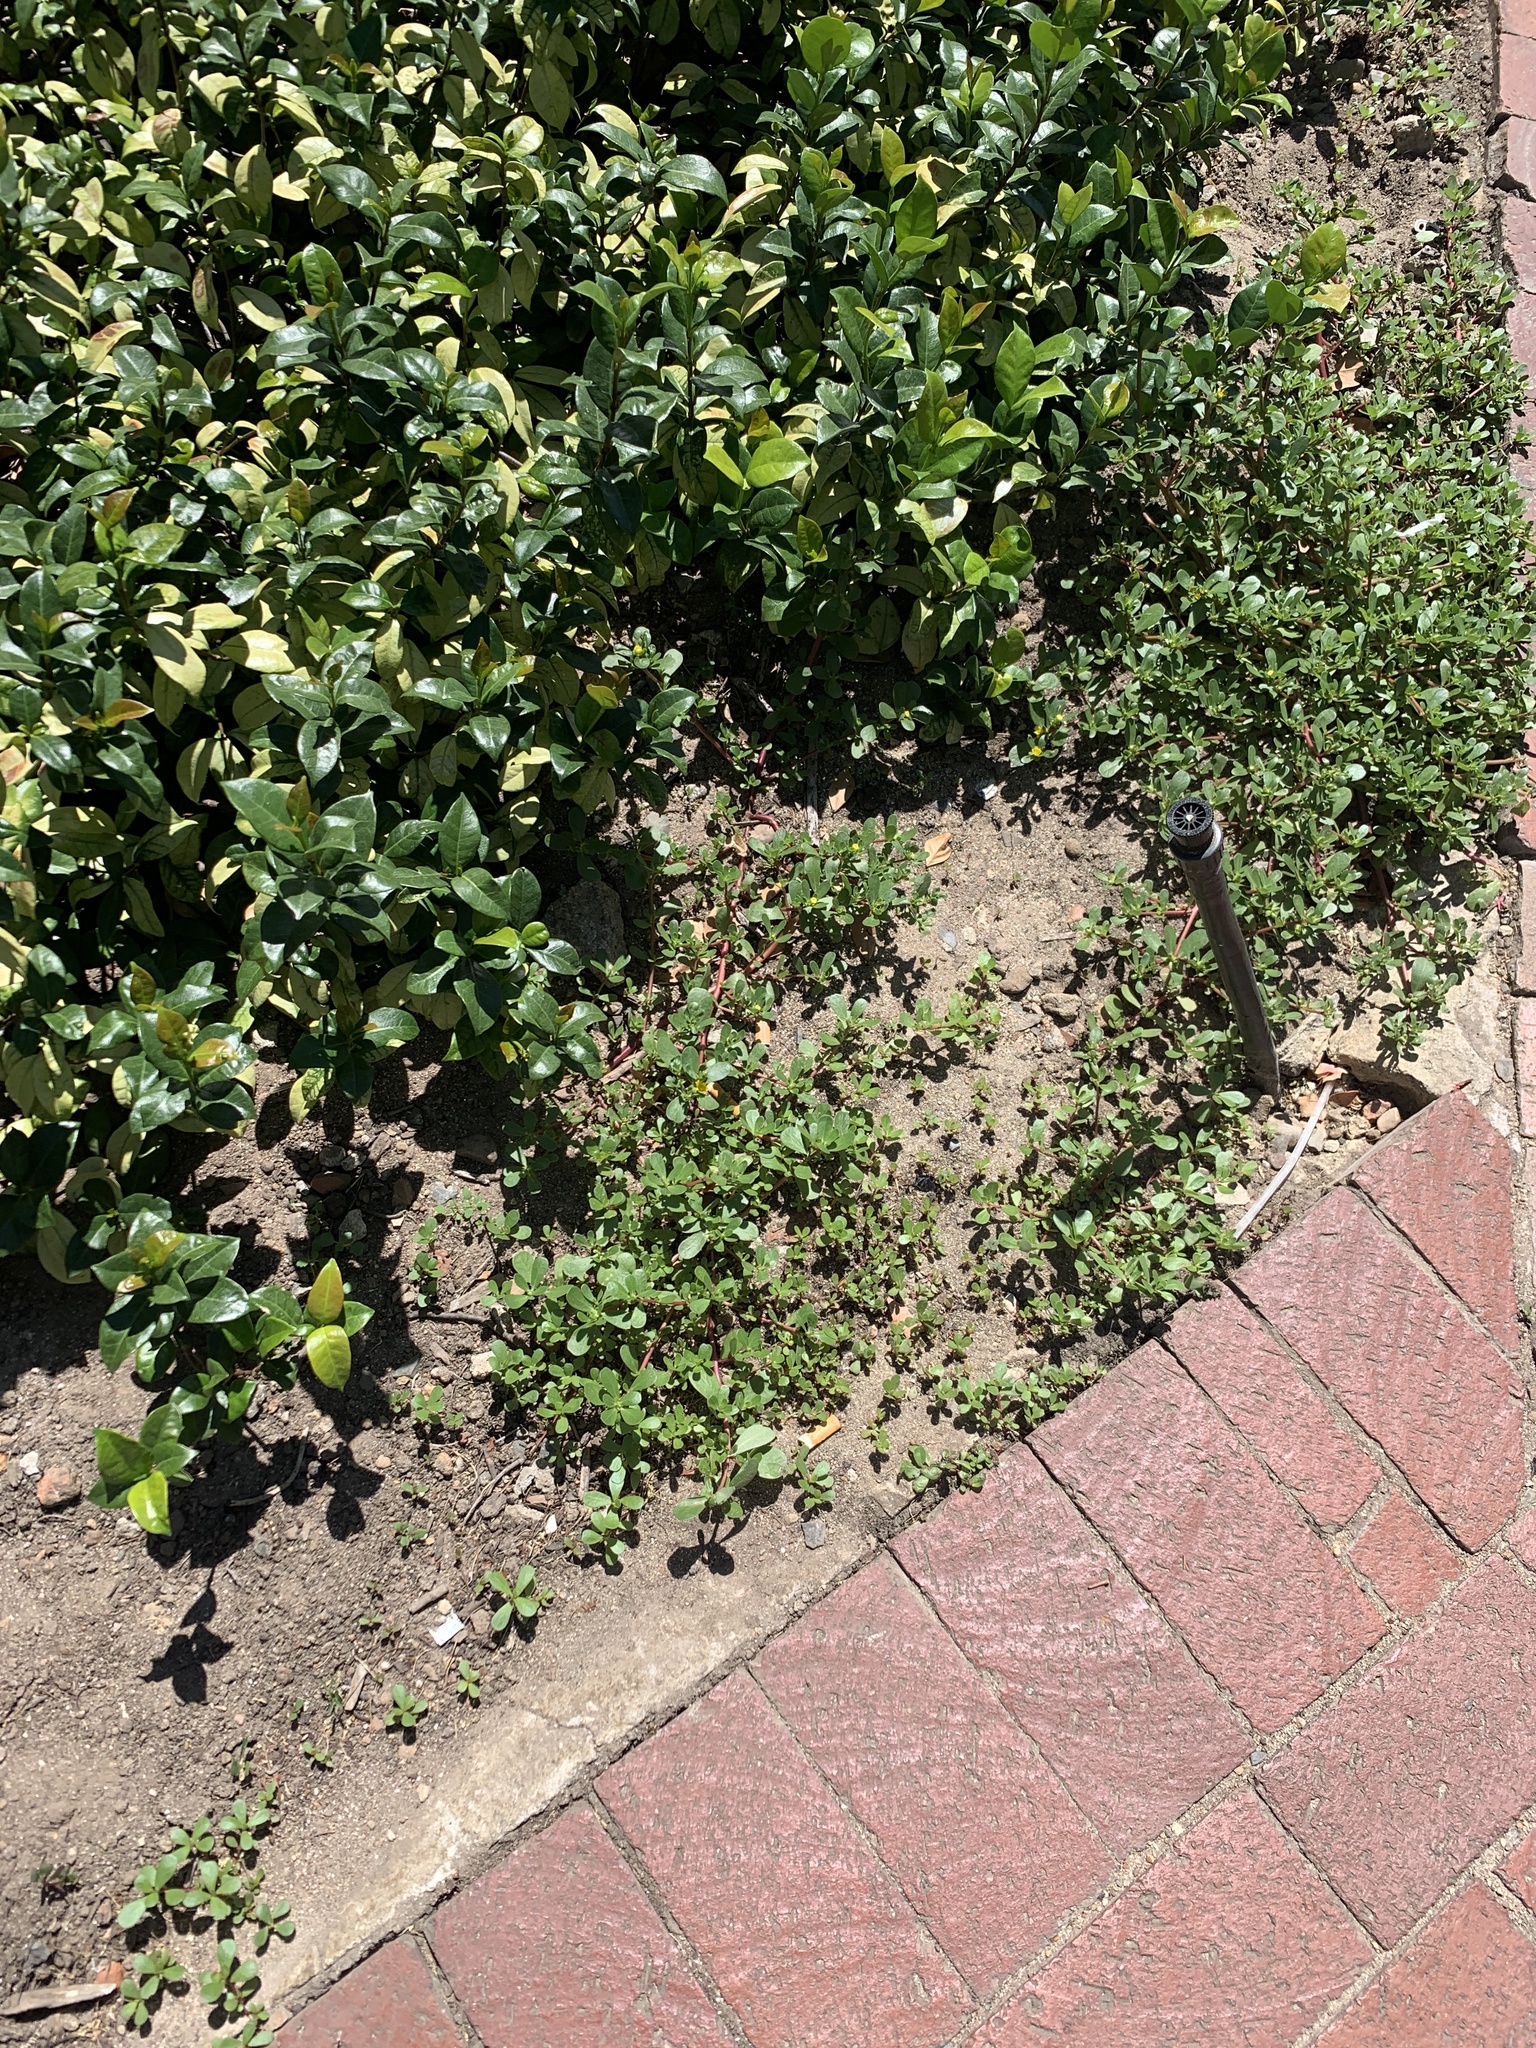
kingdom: Plantae
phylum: Tracheophyta
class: Magnoliopsida
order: Caryophyllales
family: Portulacaceae
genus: Portulaca
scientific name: Portulaca oleracea
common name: Common purslane
